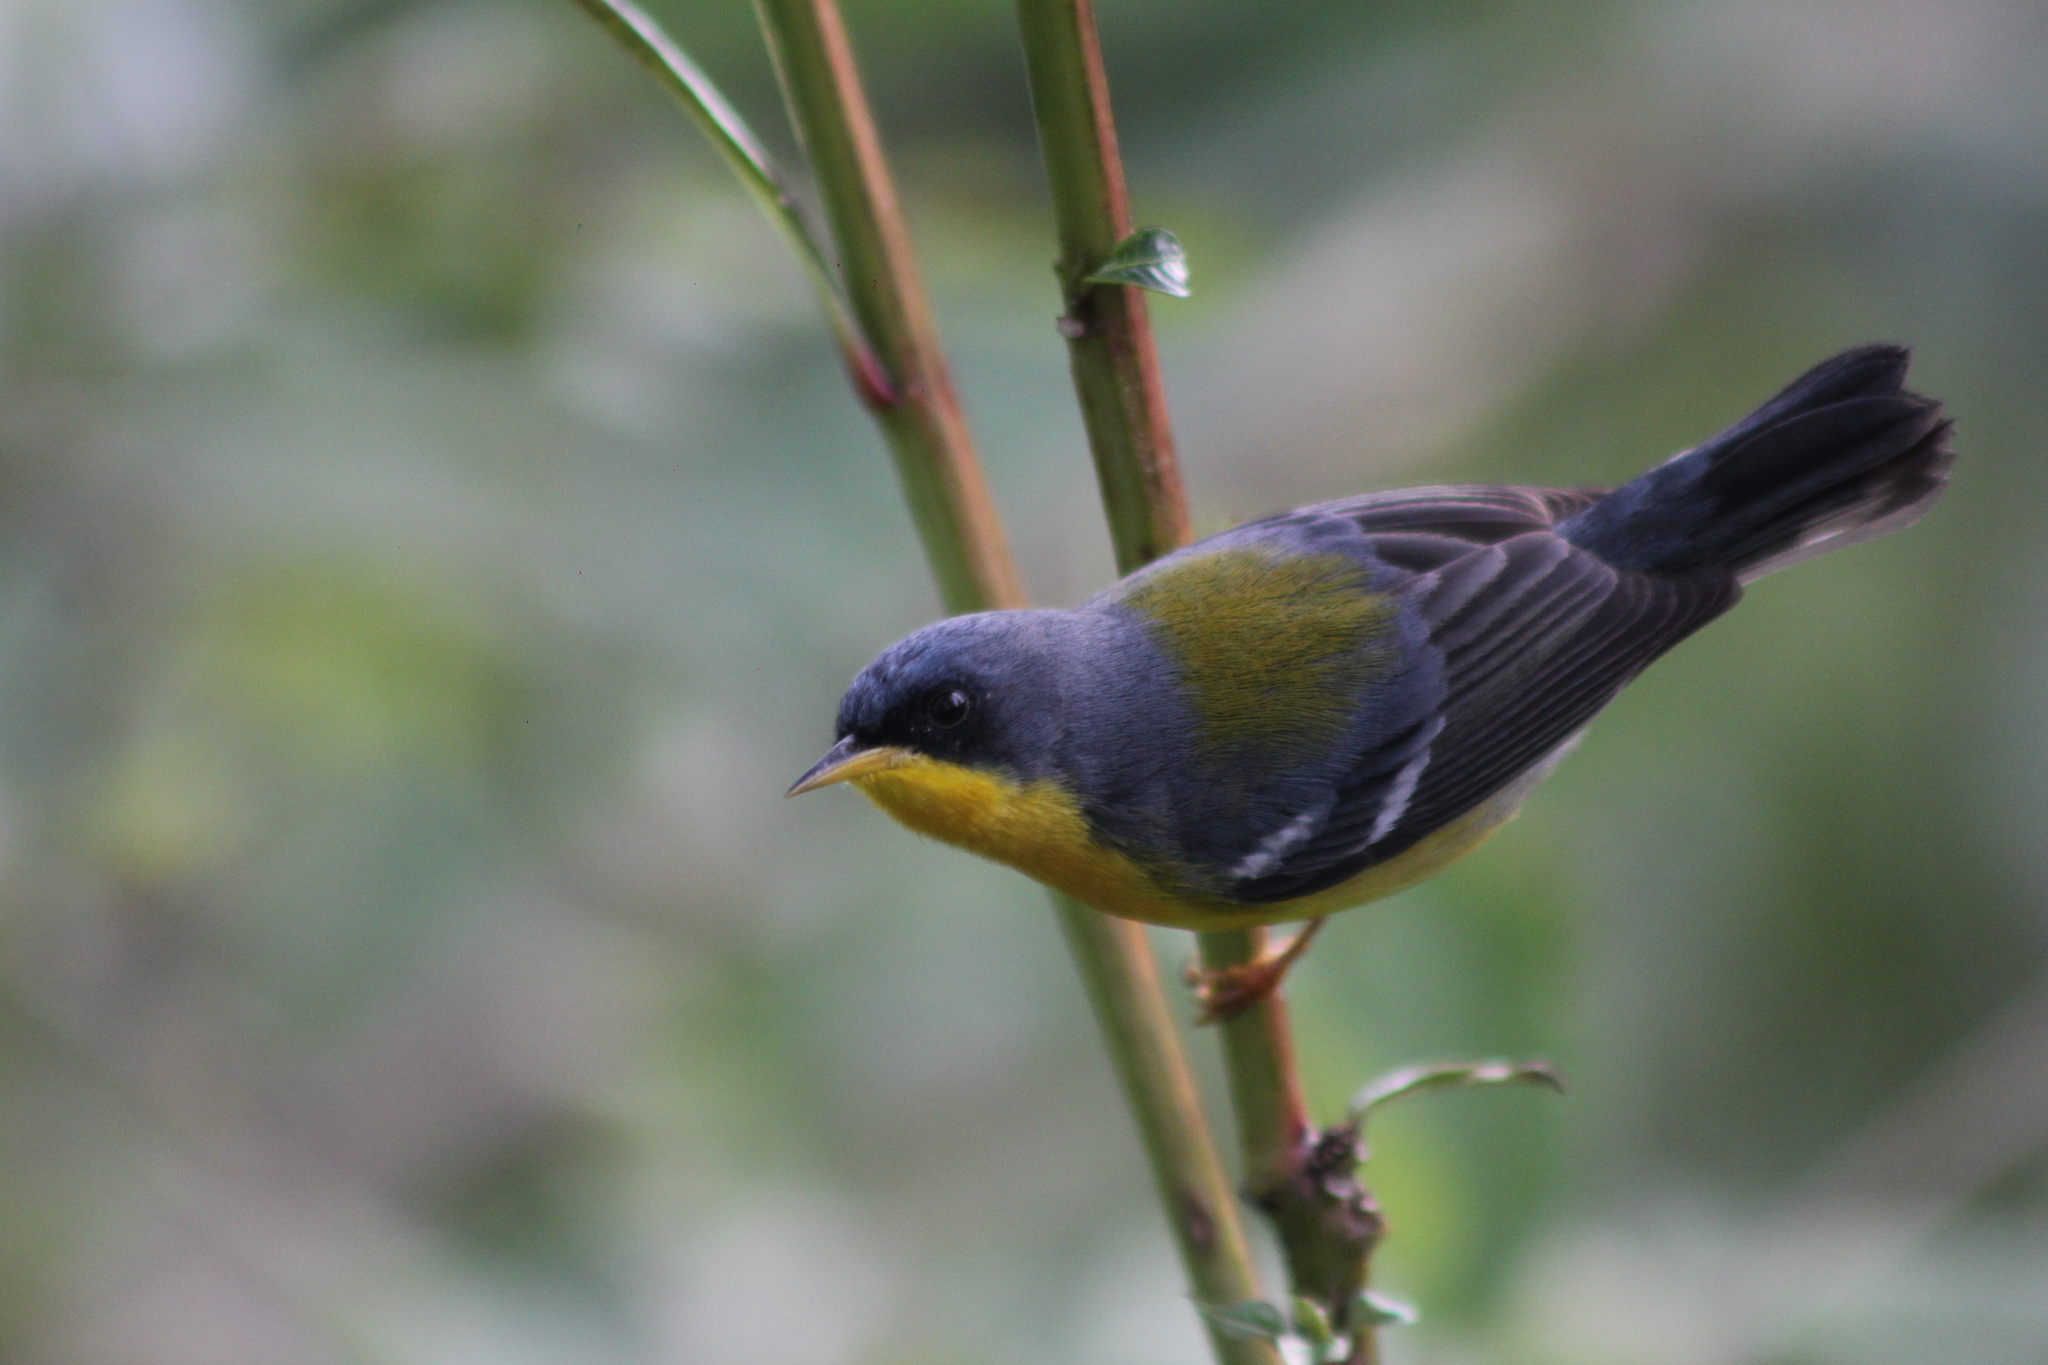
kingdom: Animalia
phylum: Chordata
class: Aves
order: Passeriformes
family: Parulidae
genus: Setophaga
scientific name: Setophaga pitiayumi
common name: Tropical parula
